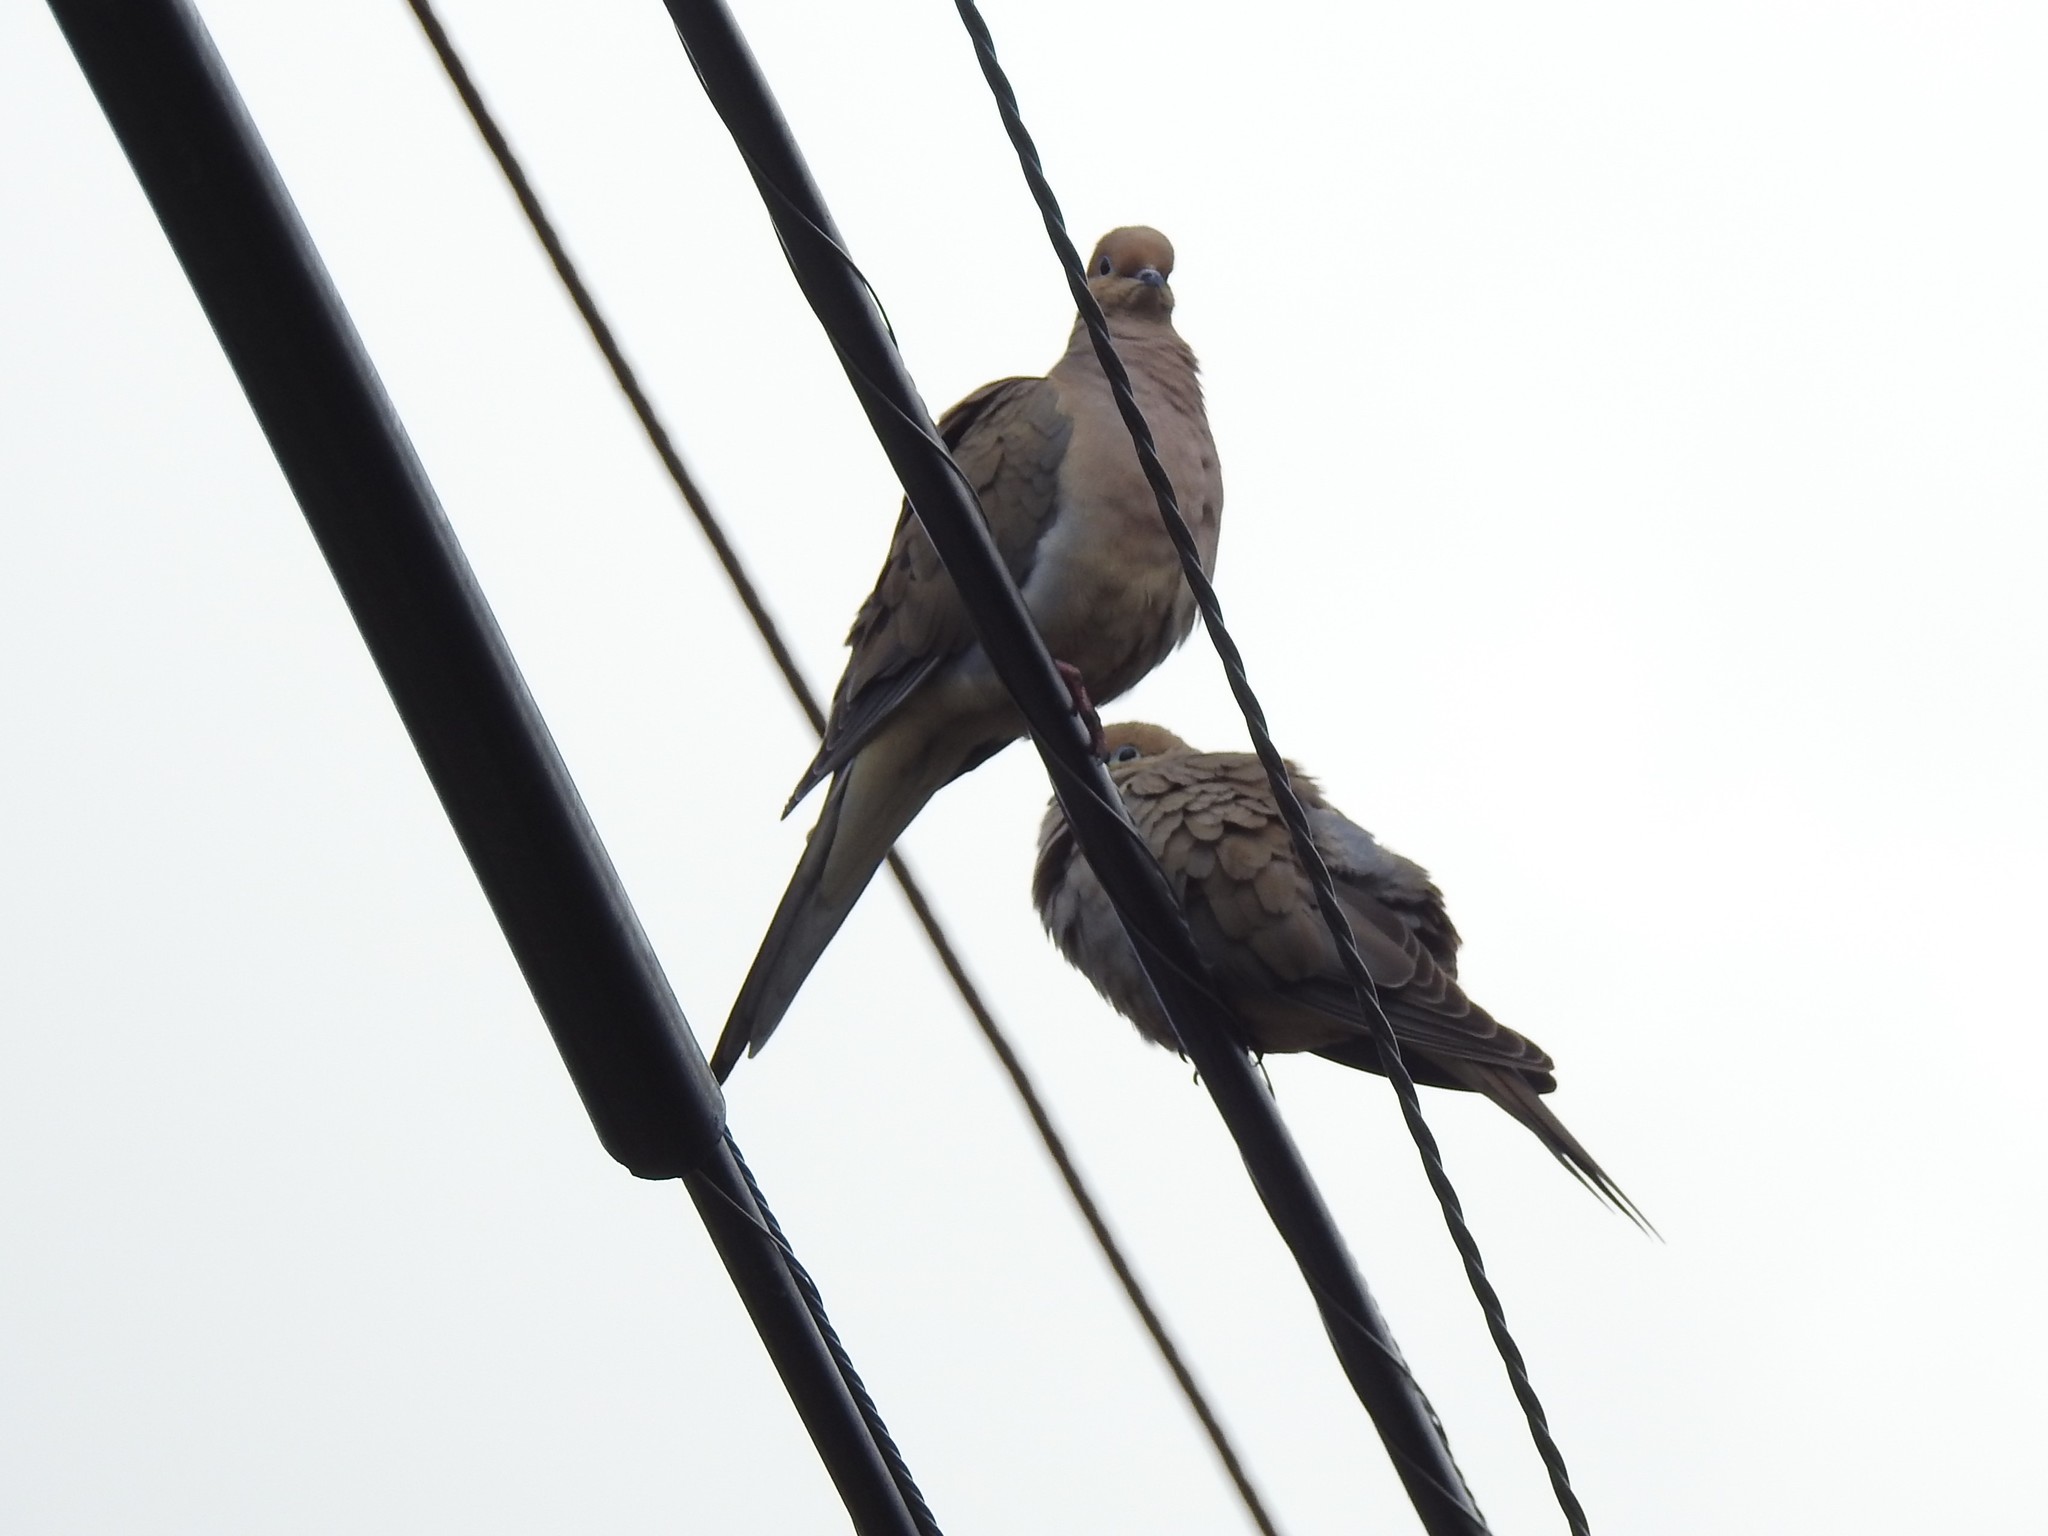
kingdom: Animalia
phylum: Chordata
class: Aves
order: Columbiformes
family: Columbidae
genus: Zenaida
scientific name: Zenaida macroura
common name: Mourning dove
